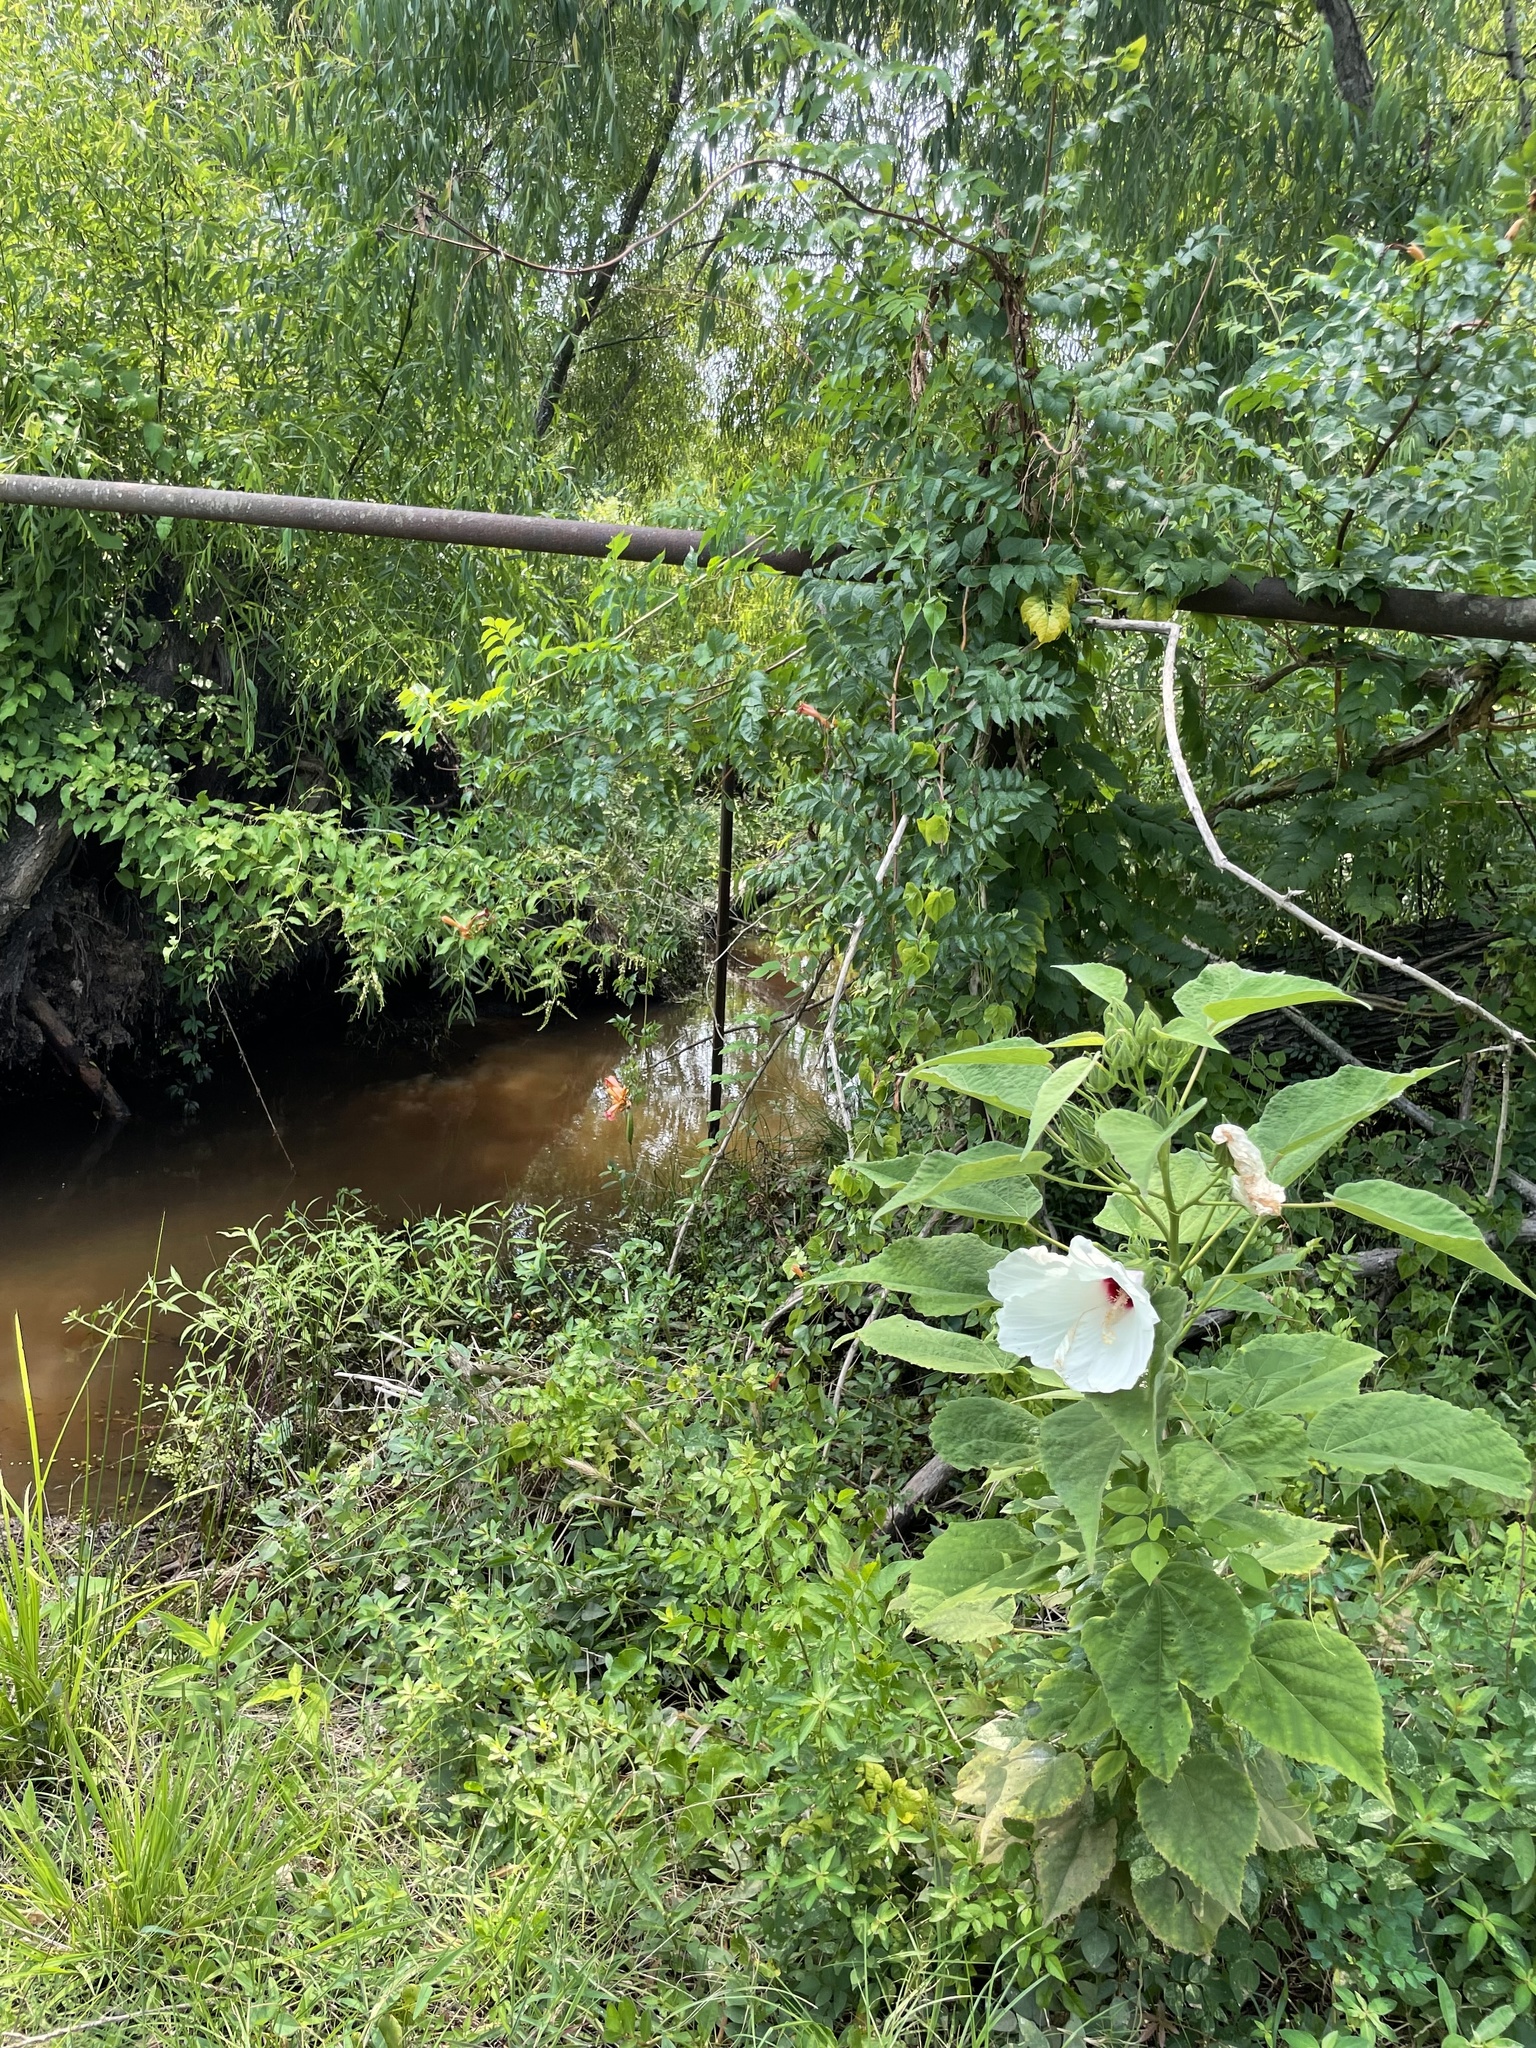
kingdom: Plantae
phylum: Tracheophyta
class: Magnoliopsida
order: Malvales
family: Malvaceae
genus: Hibiscus
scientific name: Hibiscus moscheutos
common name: Common rose-mallow
